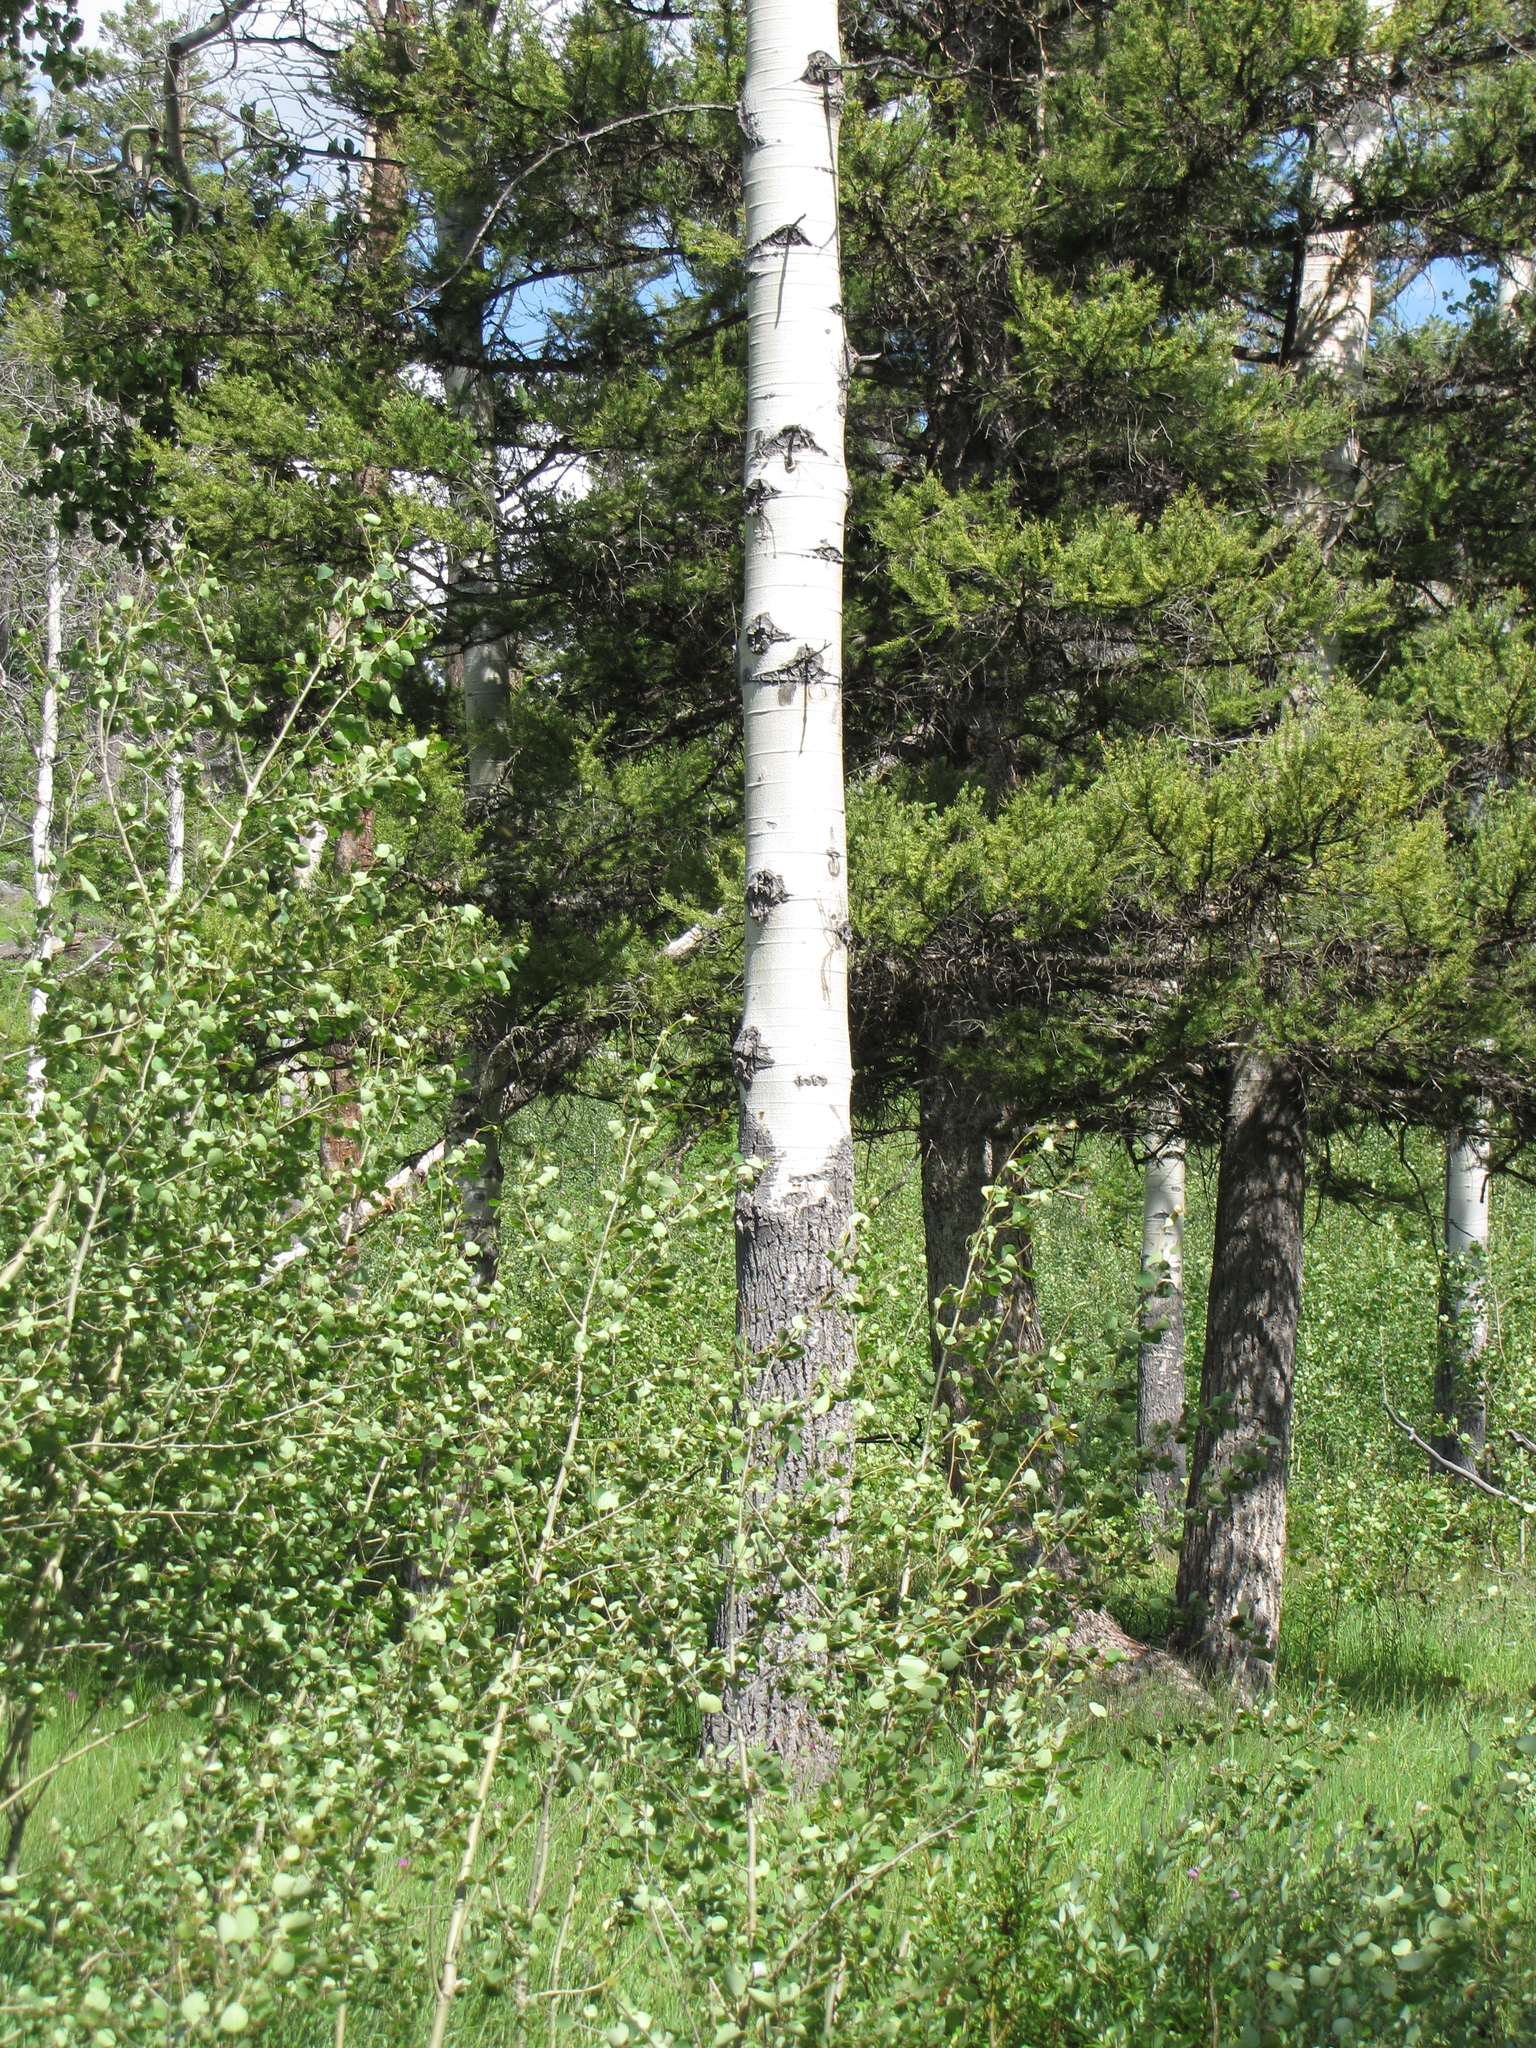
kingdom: Plantae
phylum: Tracheophyta
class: Magnoliopsida
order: Malpighiales
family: Salicaceae
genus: Populus
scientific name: Populus tremuloides
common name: Quaking aspen
